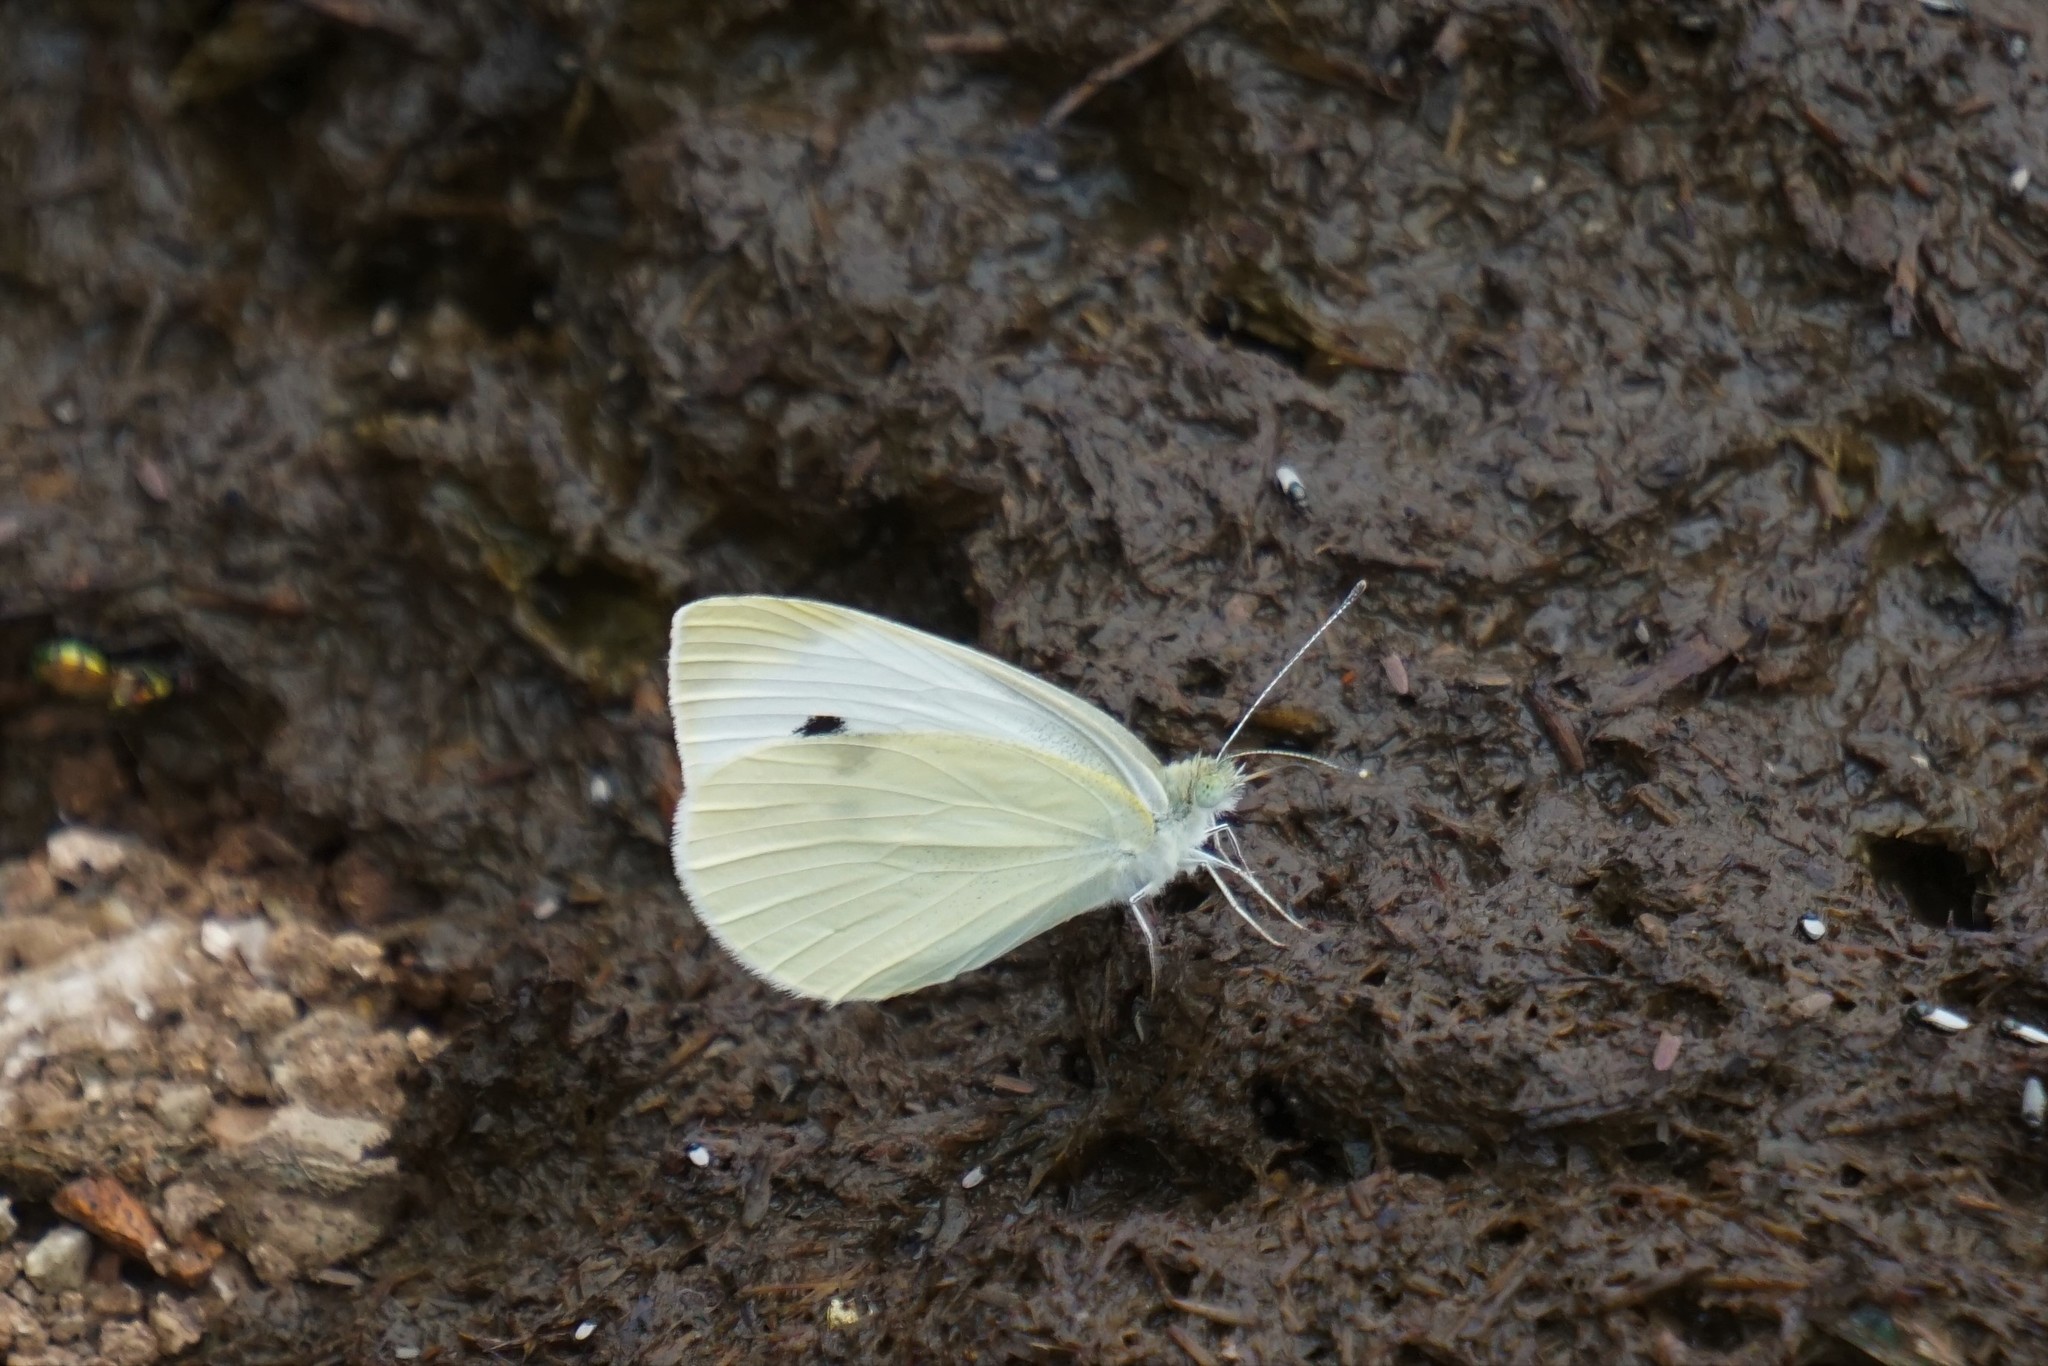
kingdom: Animalia
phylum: Arthropoda
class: Insecta
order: Lepidoptera
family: Pieridae
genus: Pieris
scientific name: Pieris rapae
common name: Small white
